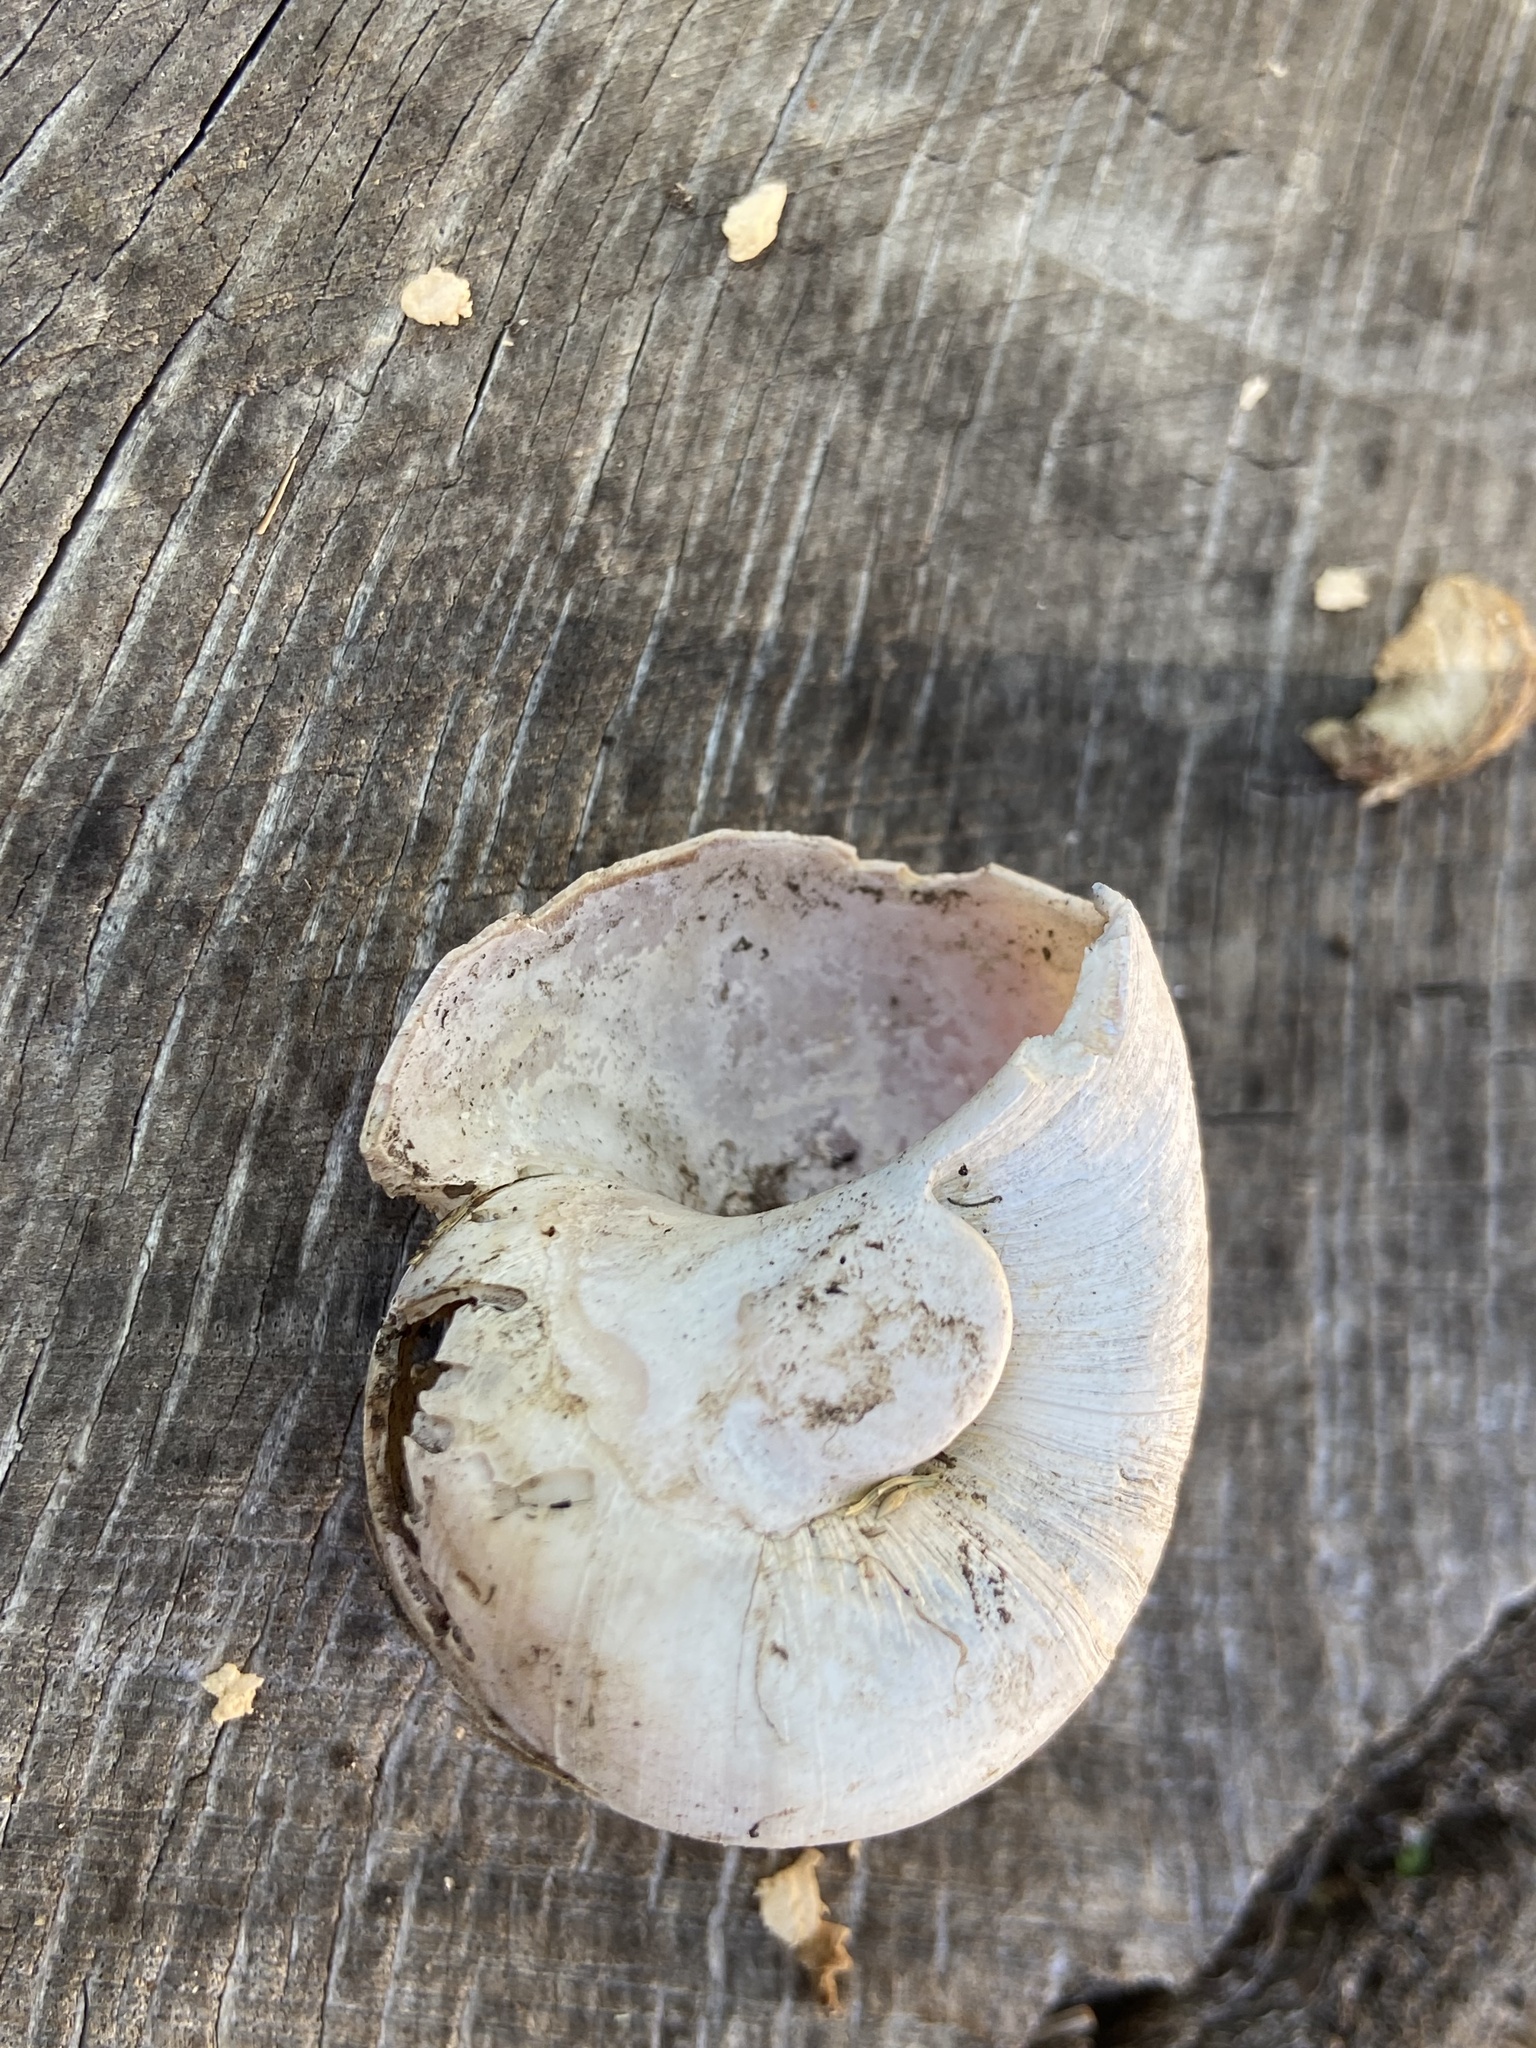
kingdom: Animalia
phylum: Mollusca
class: Gastropoda
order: Littorinimorpha
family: Naticidae
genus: Neverita
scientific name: Neverita duplicata
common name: Lobed moonsnail
